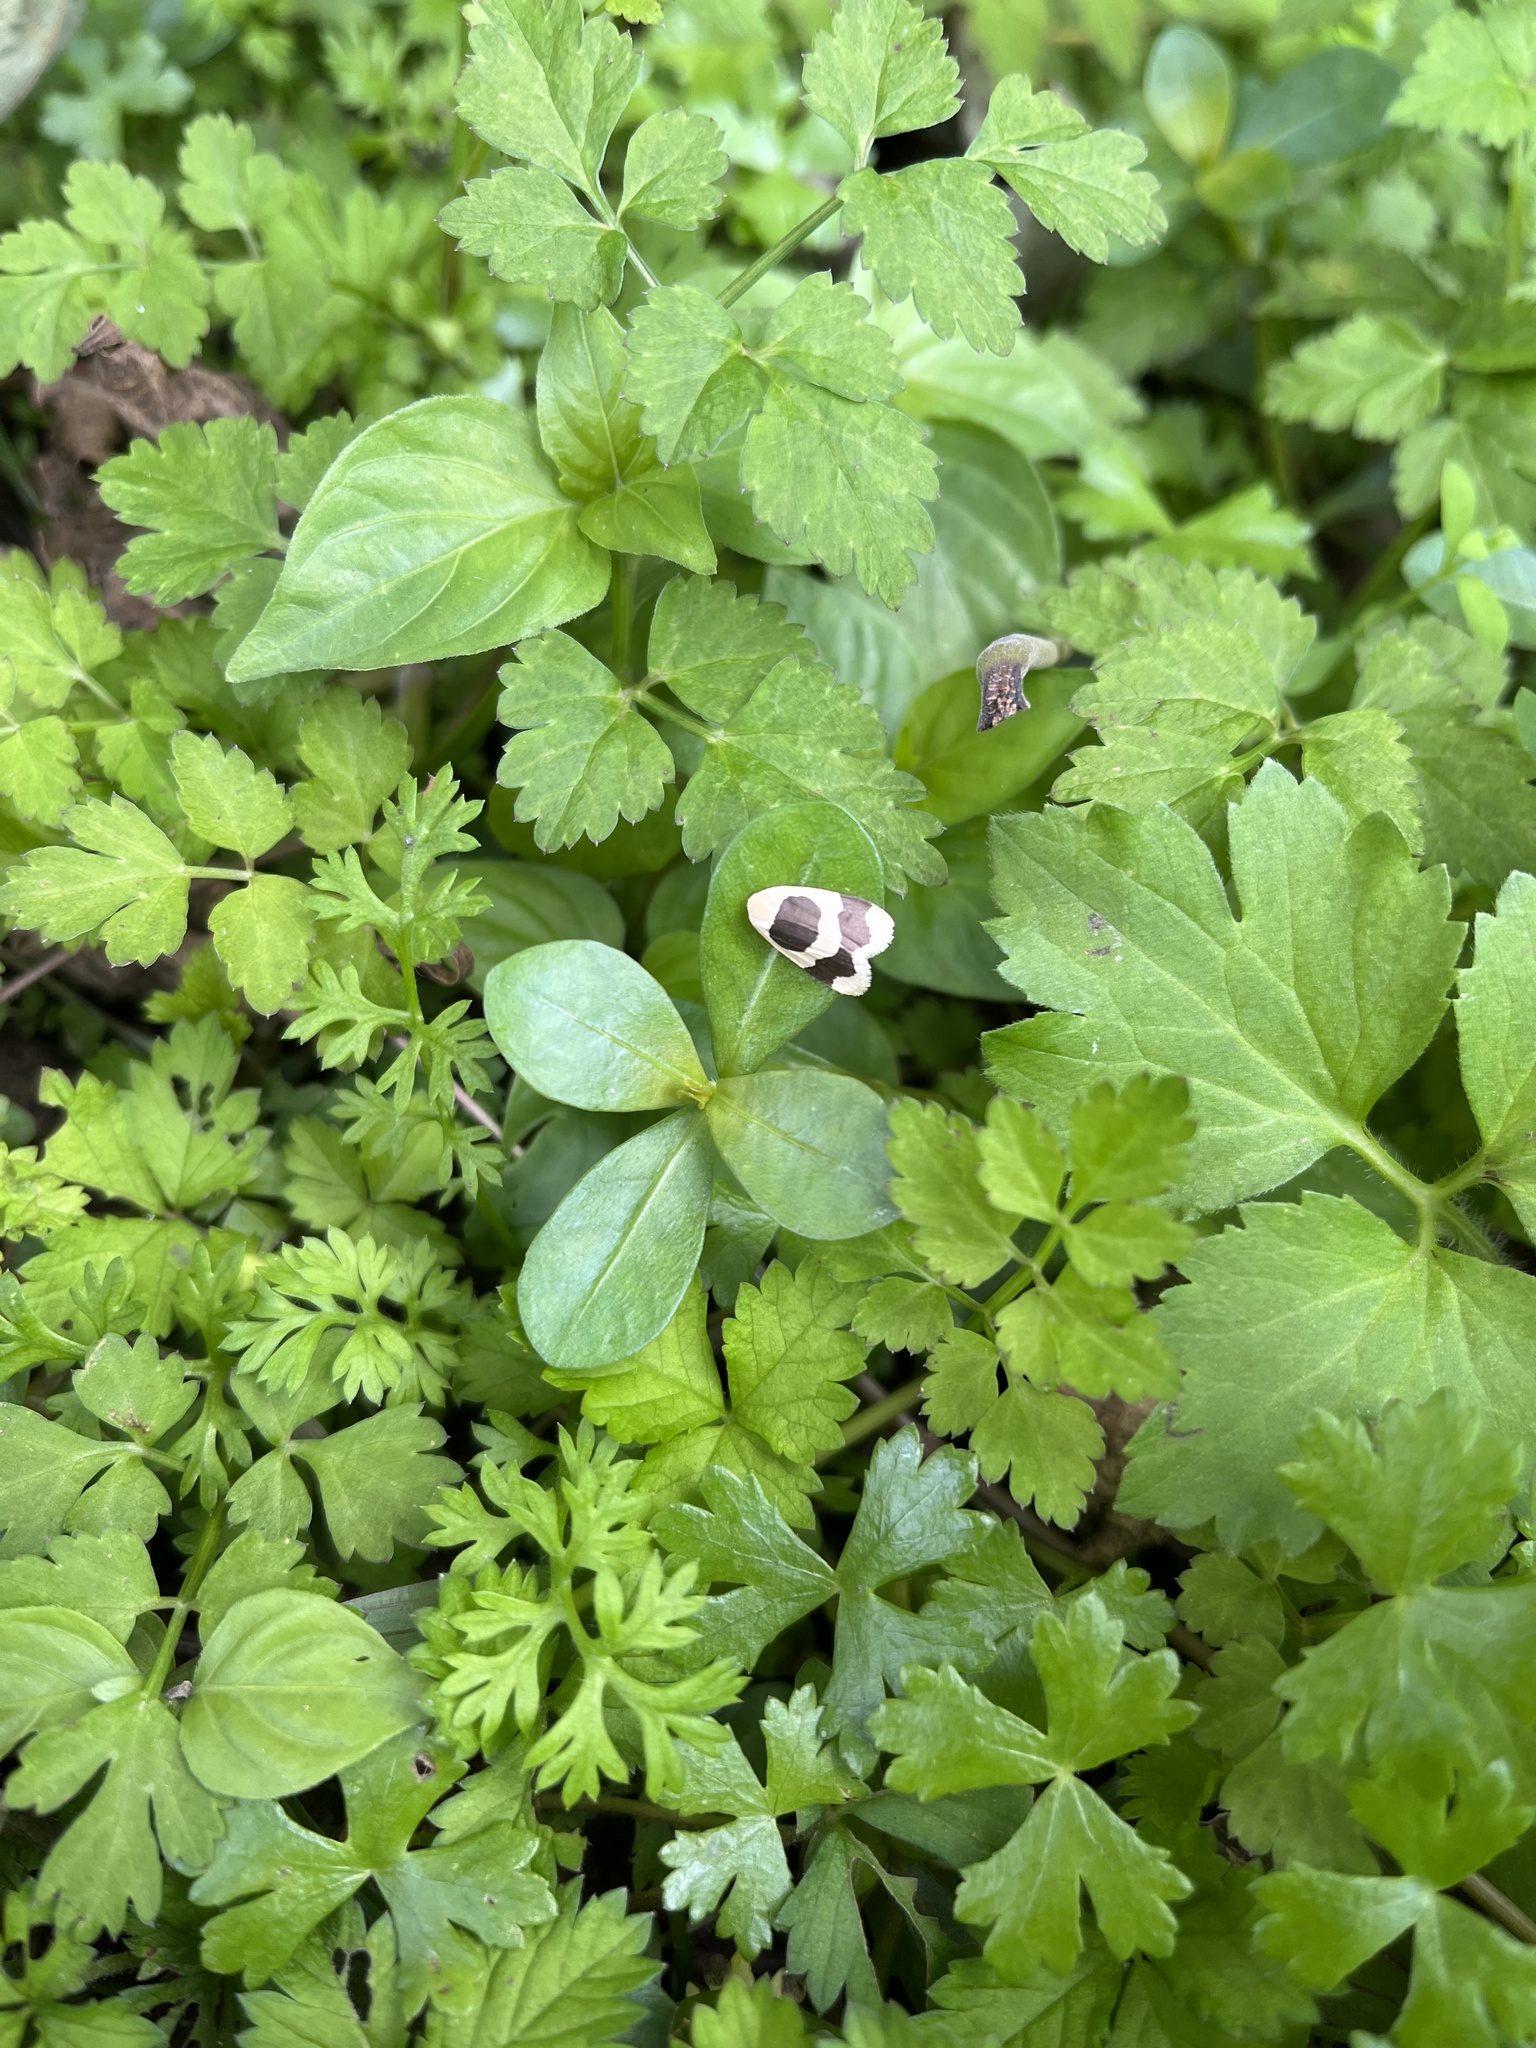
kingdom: Animalia
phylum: Arthropoda
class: Insecta
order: Lepidoptera
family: Erebidae
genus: Garudinia
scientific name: Garudinia taioana
